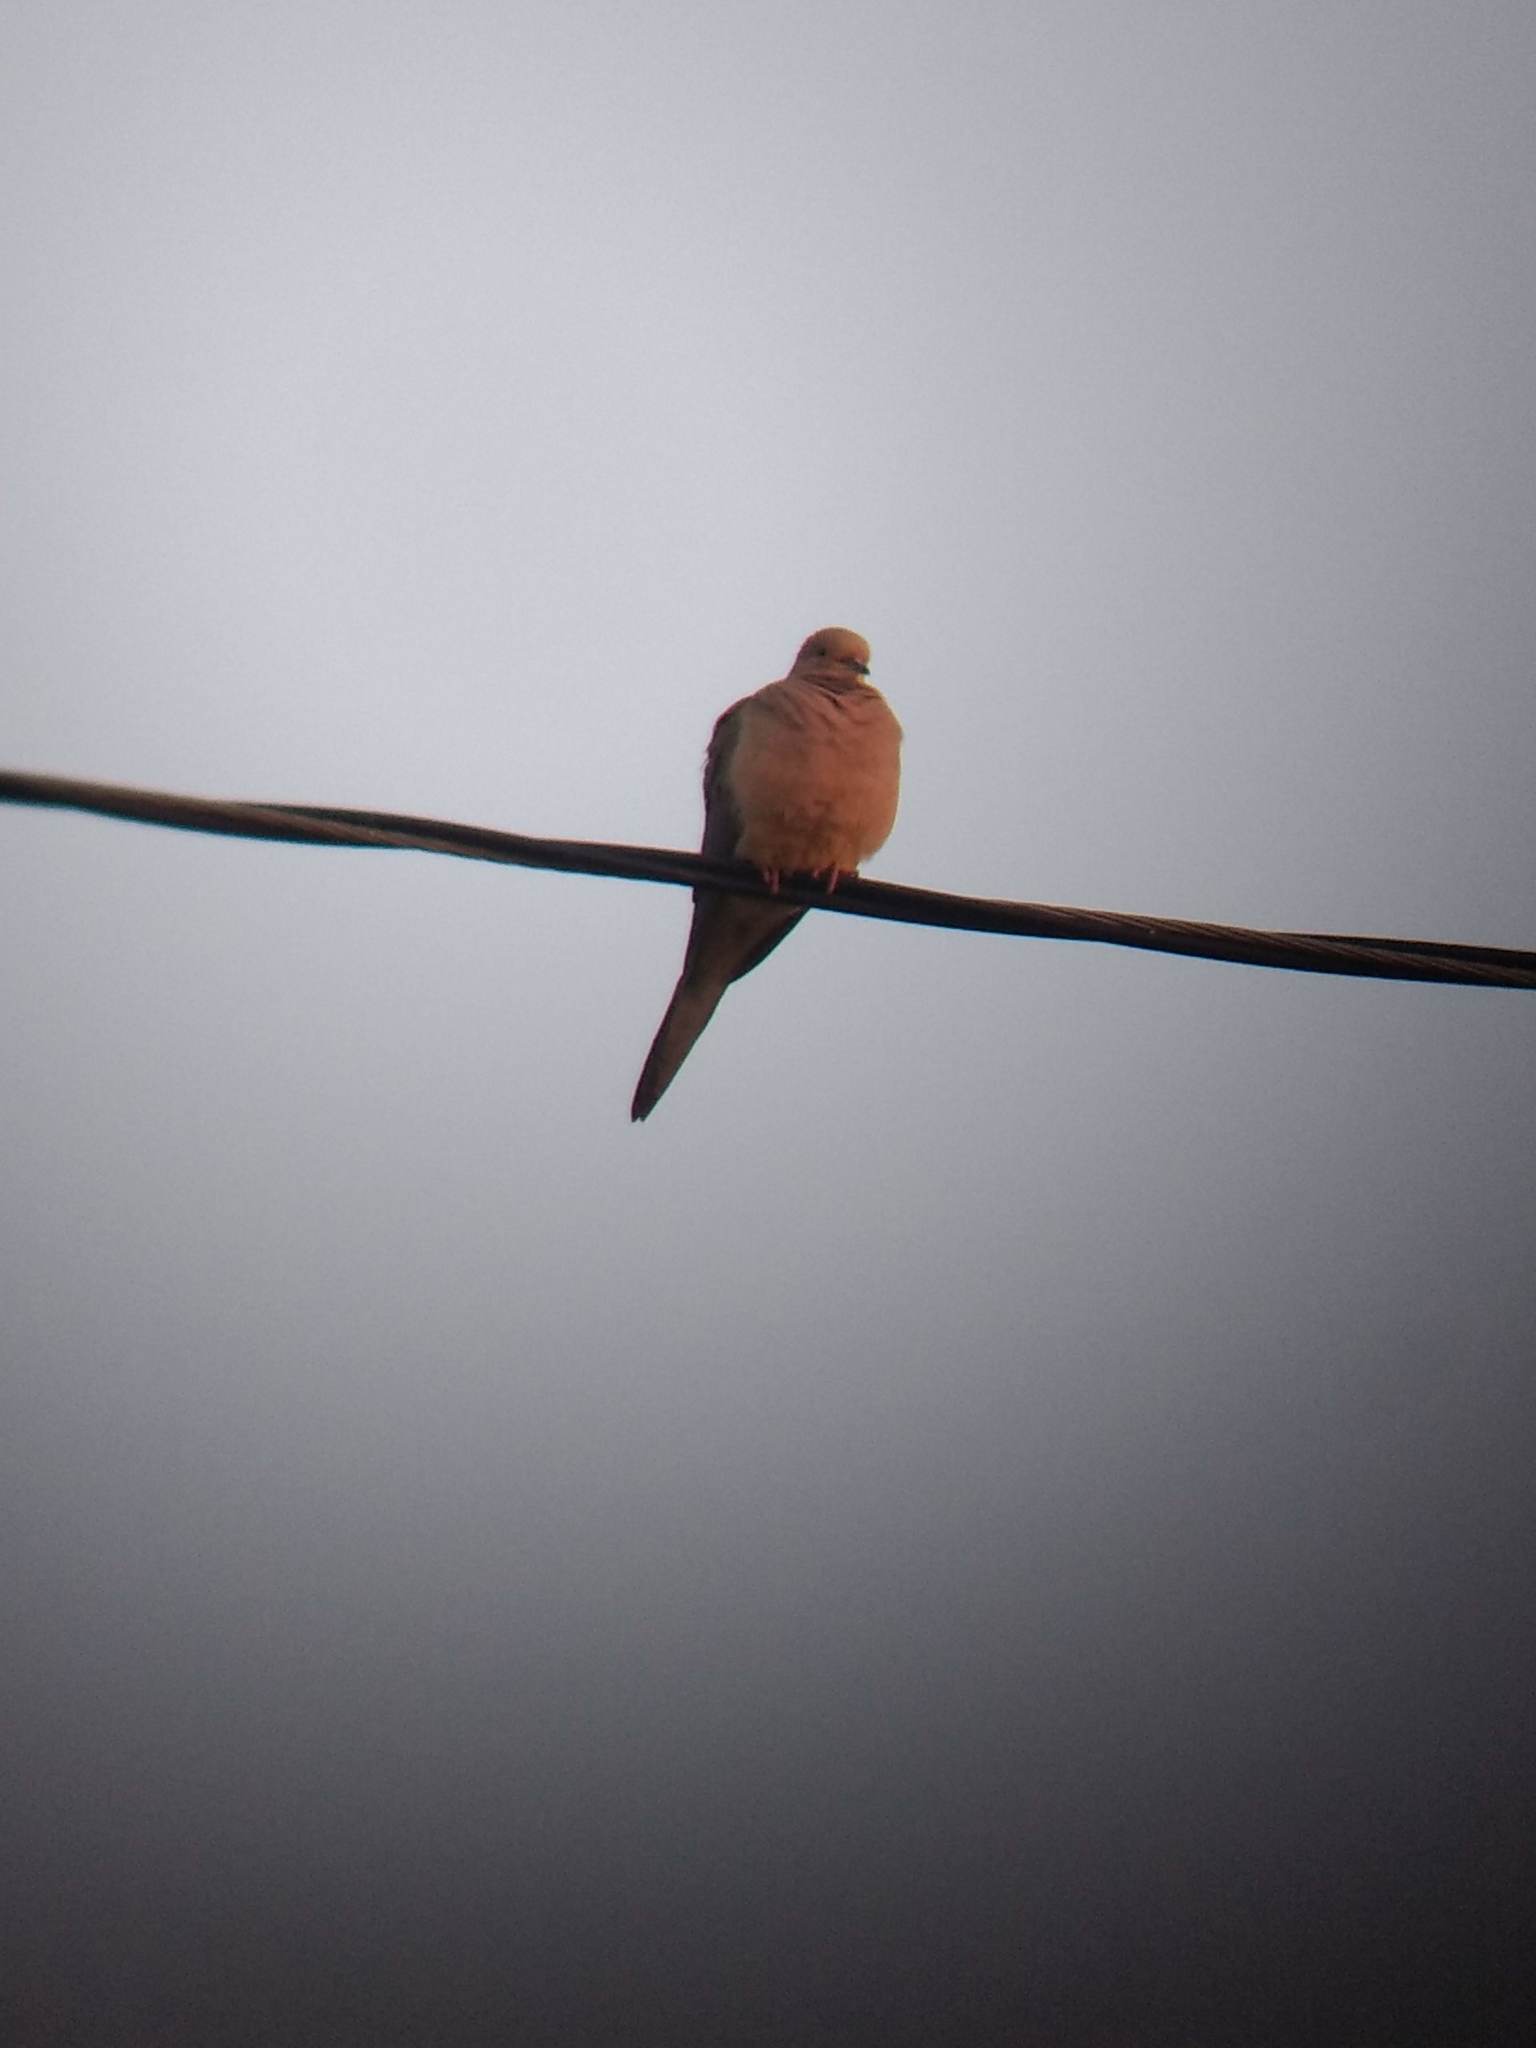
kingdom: Animalia
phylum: Chordata
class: Aves
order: Columbiformes
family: Columbidae
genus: Zenaida
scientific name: Zenaida macroura
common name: Mourning dove
